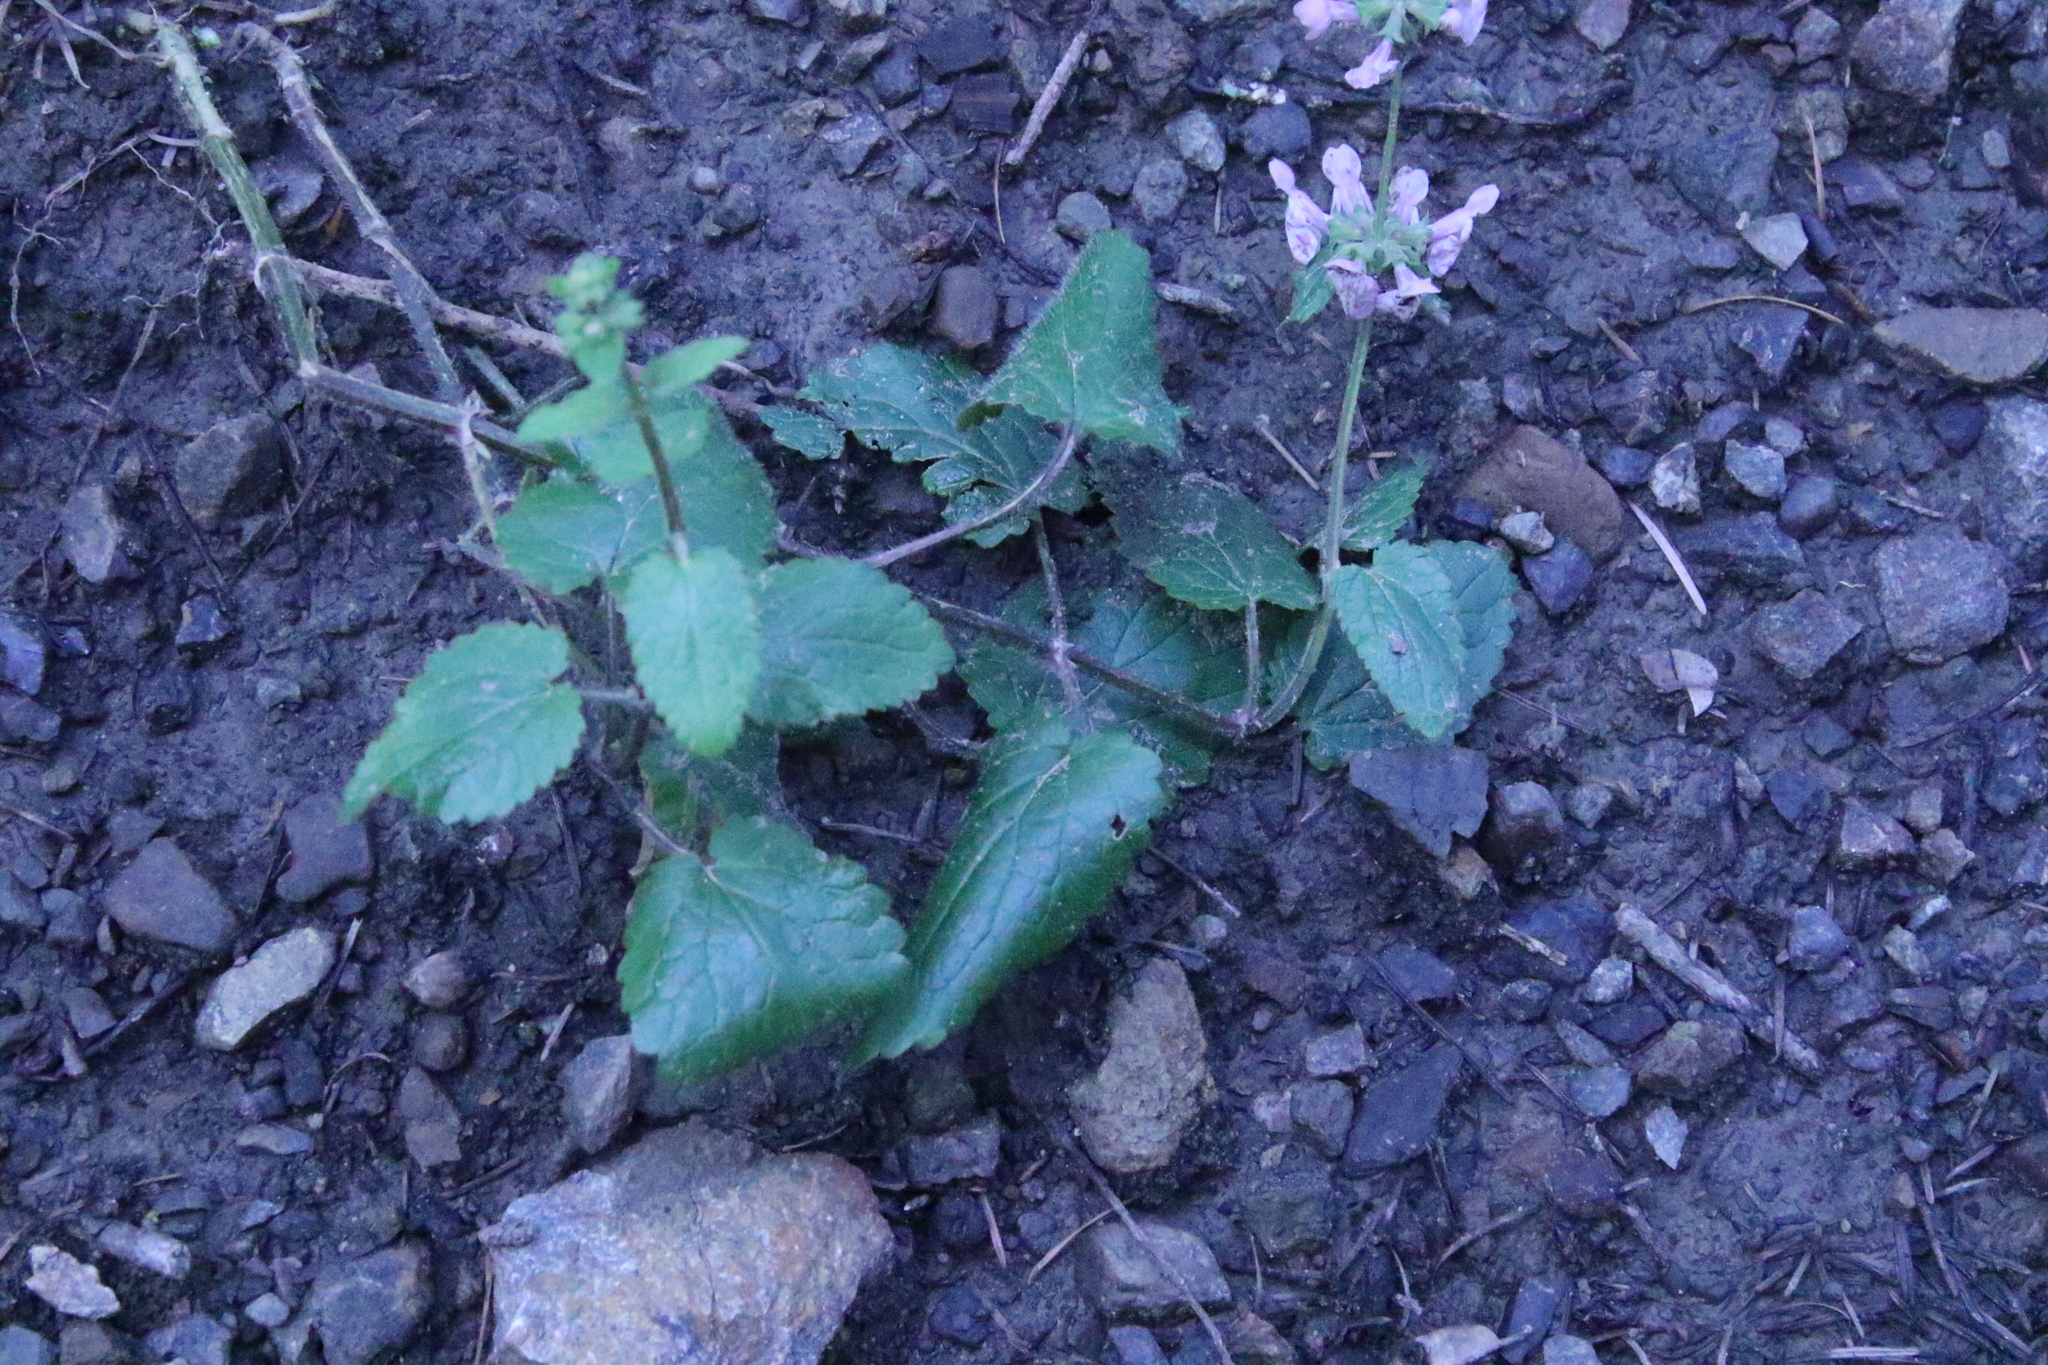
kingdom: Plantae
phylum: Tracheophyta
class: Magnoliopsida
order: Lamiales
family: Lamiaceae
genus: Stachys
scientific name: Stachys bullata
